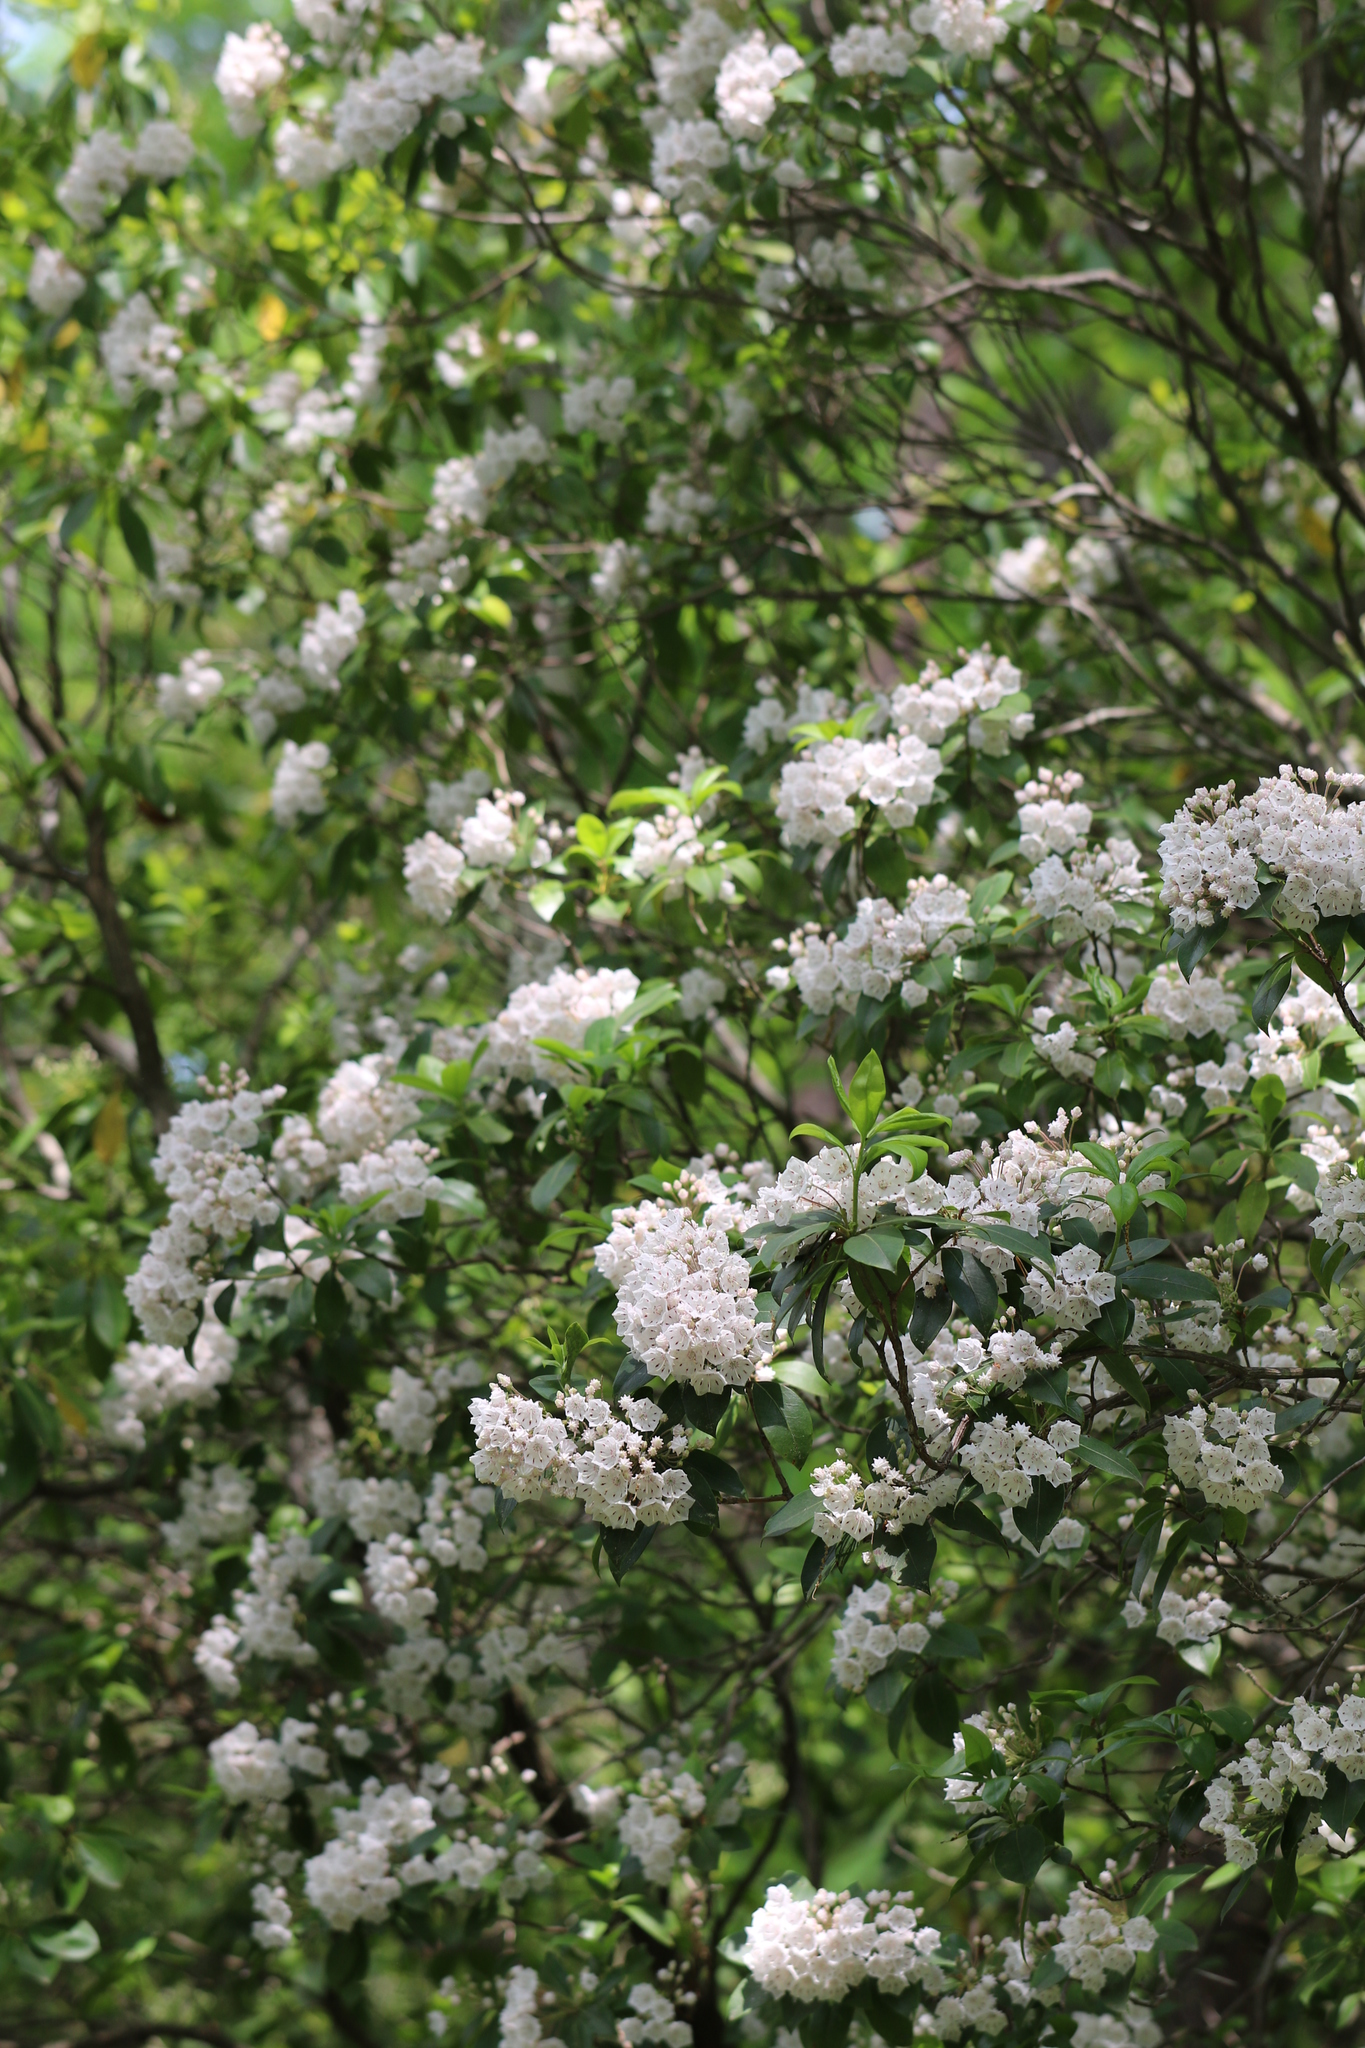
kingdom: Plantae
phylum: Tracheophyta
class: Magnoliopsida
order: Ericales
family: Ericaceae
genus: Kalmia
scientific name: Kalmia latifolia
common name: Mountain-laurel
